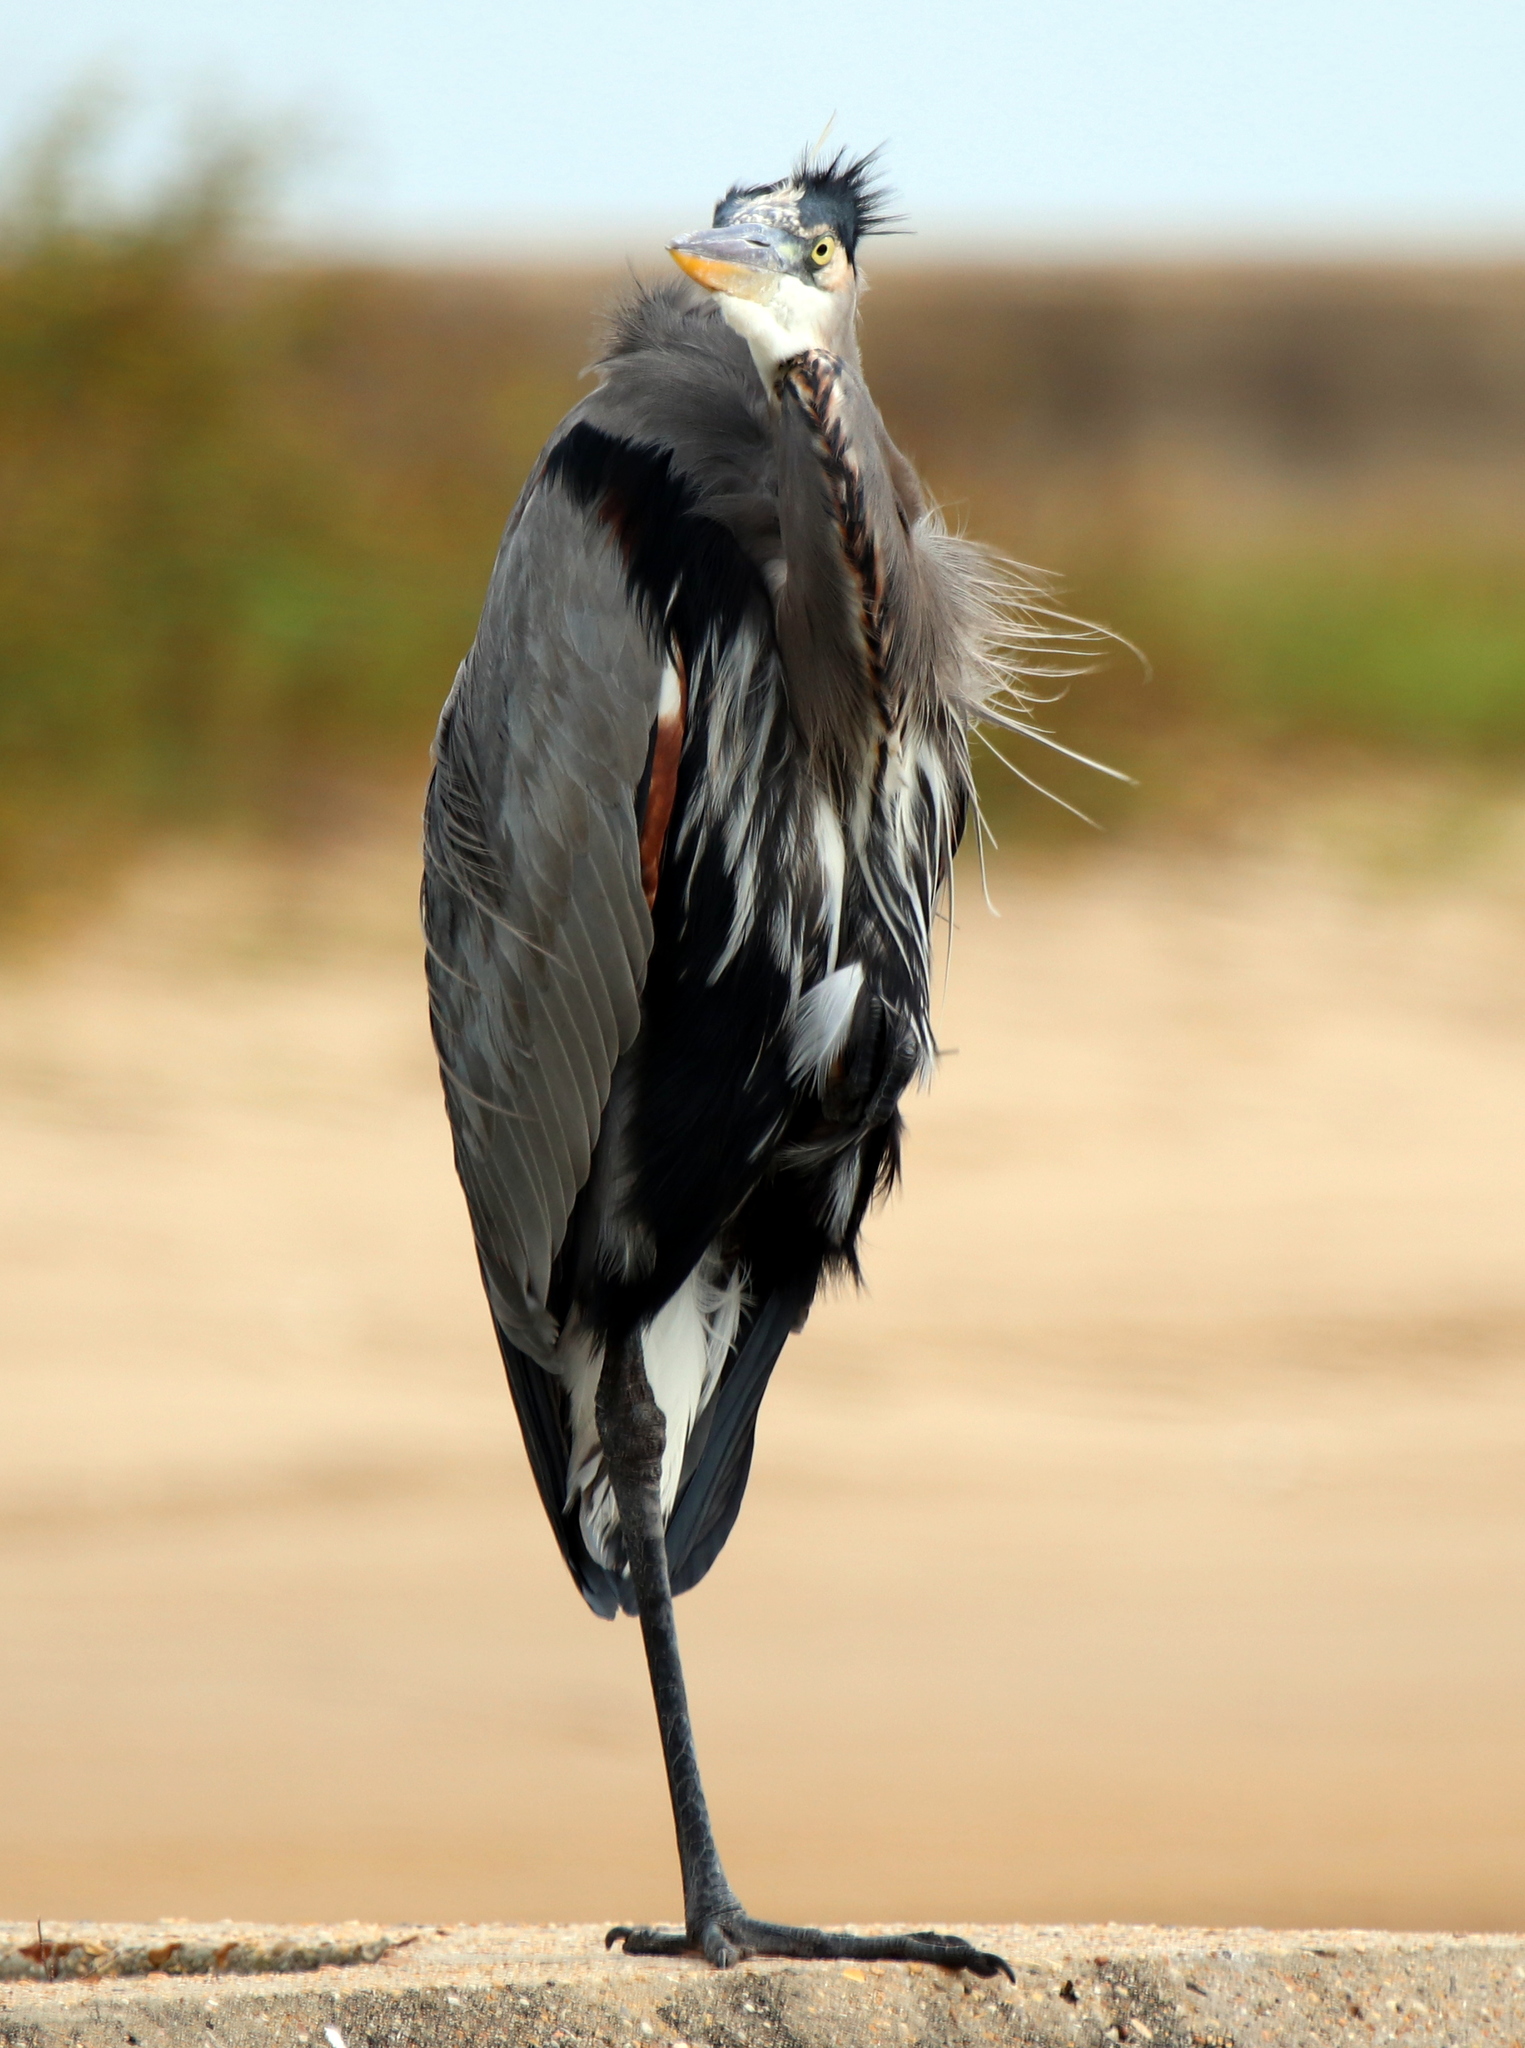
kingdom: Animalia
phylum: Chordata
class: Aves
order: Pelecaniformes
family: Ardeidae
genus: Ardea
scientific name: Ardea herodias
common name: Great blue heron
